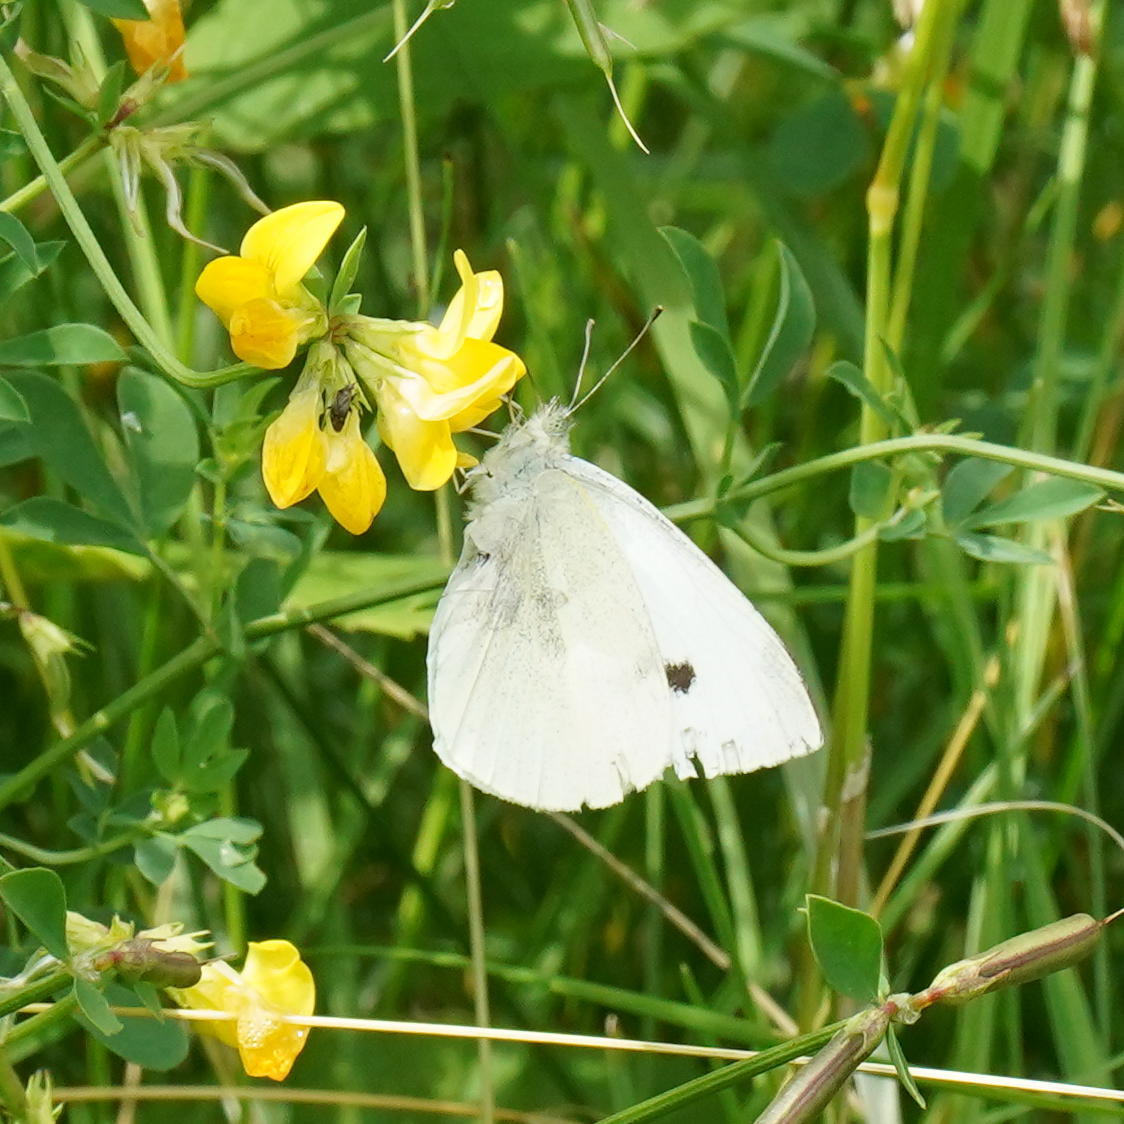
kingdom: Animalia
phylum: Arthropoda
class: Insecta
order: Lepidoptera
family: Pieridae
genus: Pieris
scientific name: Pieris rapae
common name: Small white
